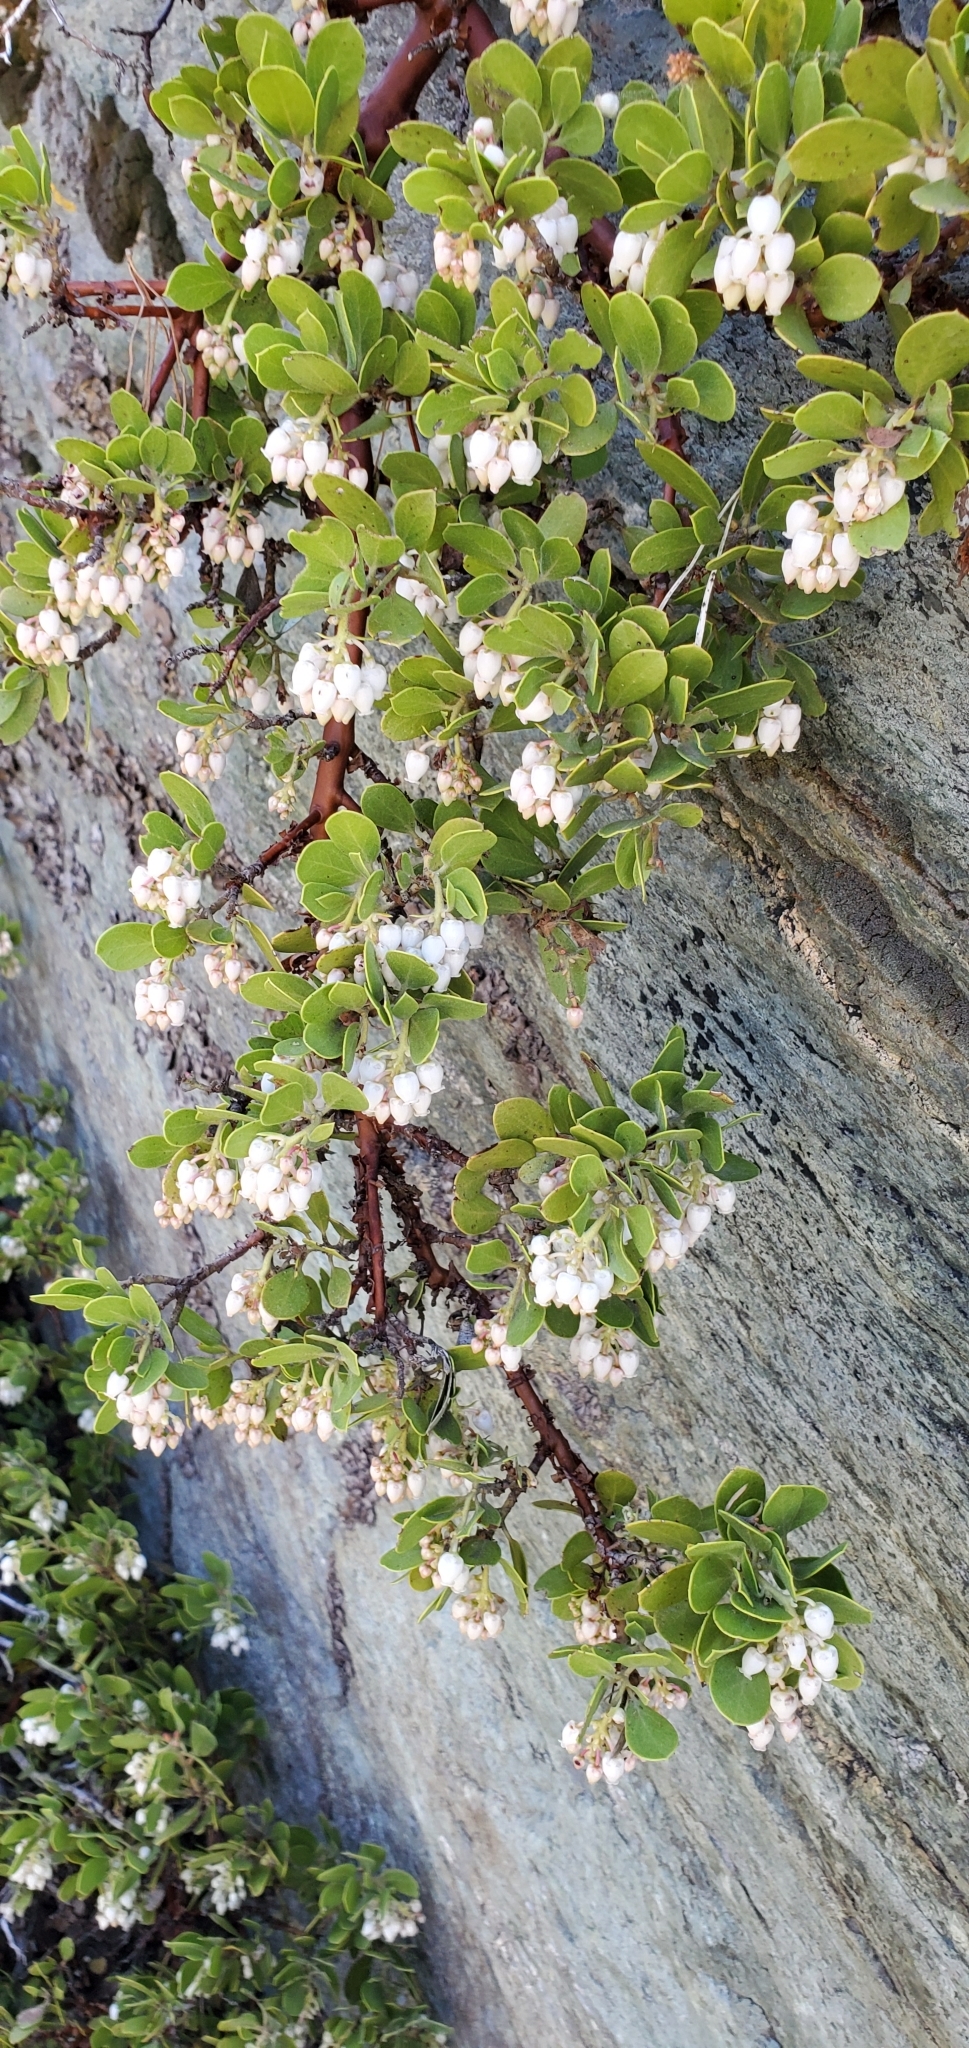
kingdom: Plantae
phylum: Tracheophyta
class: Magnoliopsida
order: Ericales
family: Ericaceae
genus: Arctostaphylos
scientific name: Arctostaphylos nevadensis
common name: Pinemat manzanita
